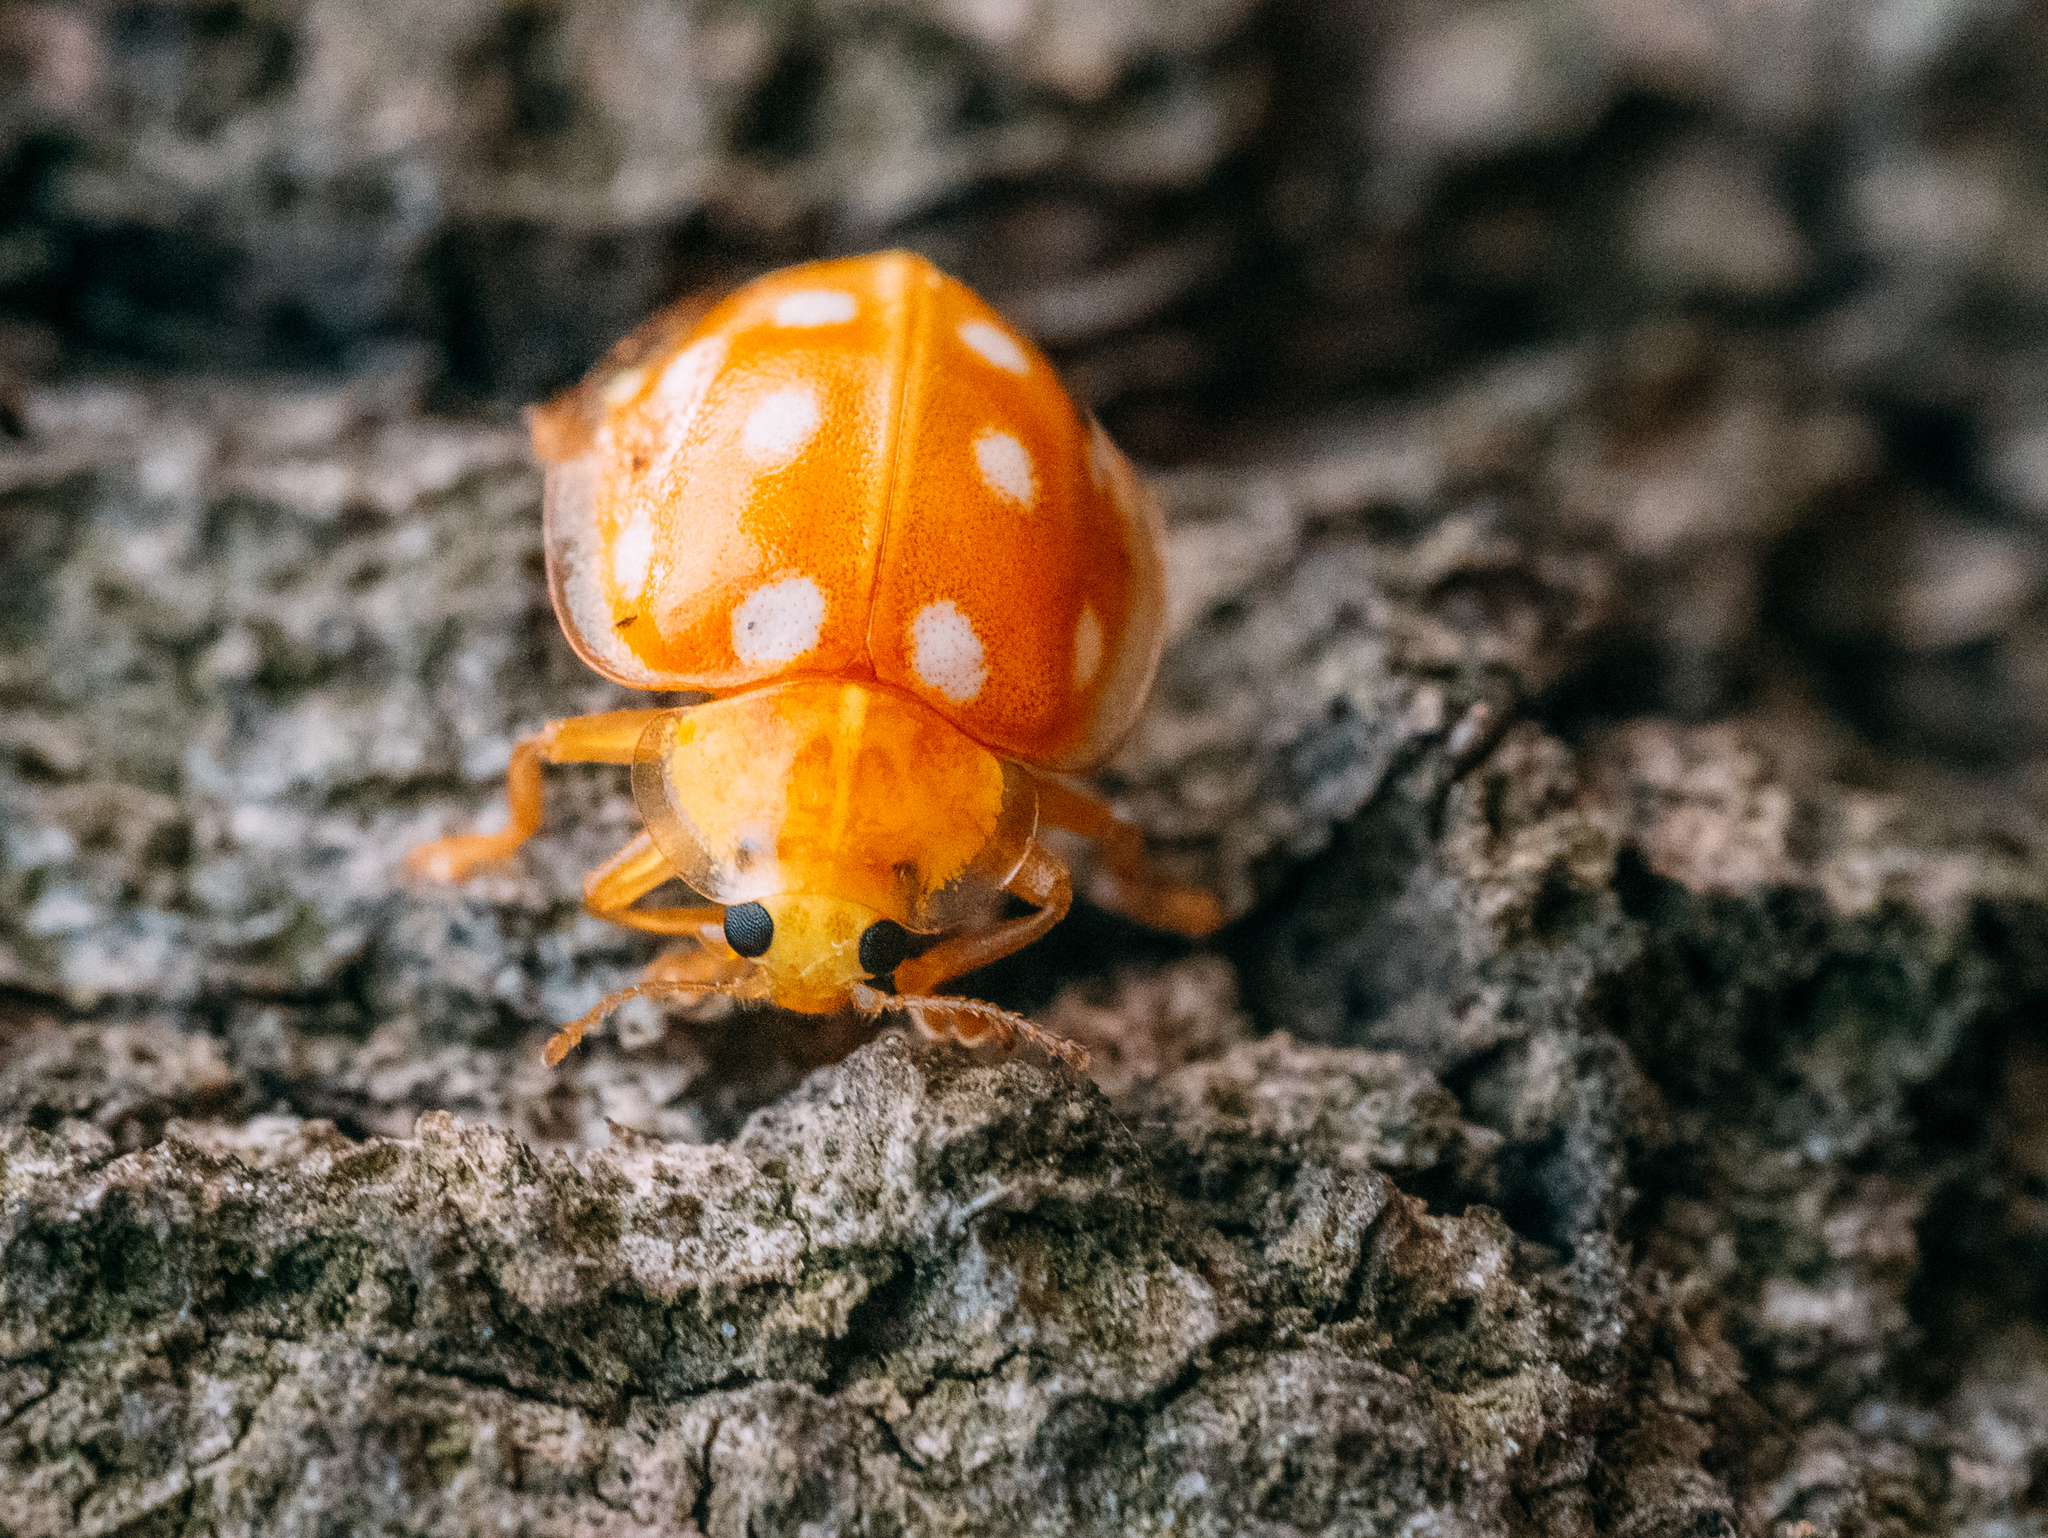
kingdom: Animalia
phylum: Arthropoda
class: Insecta
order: Coleoptera
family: Coccinellidae
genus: Halyzia
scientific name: Halyzia sedecimguttata
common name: Orange ladybird
